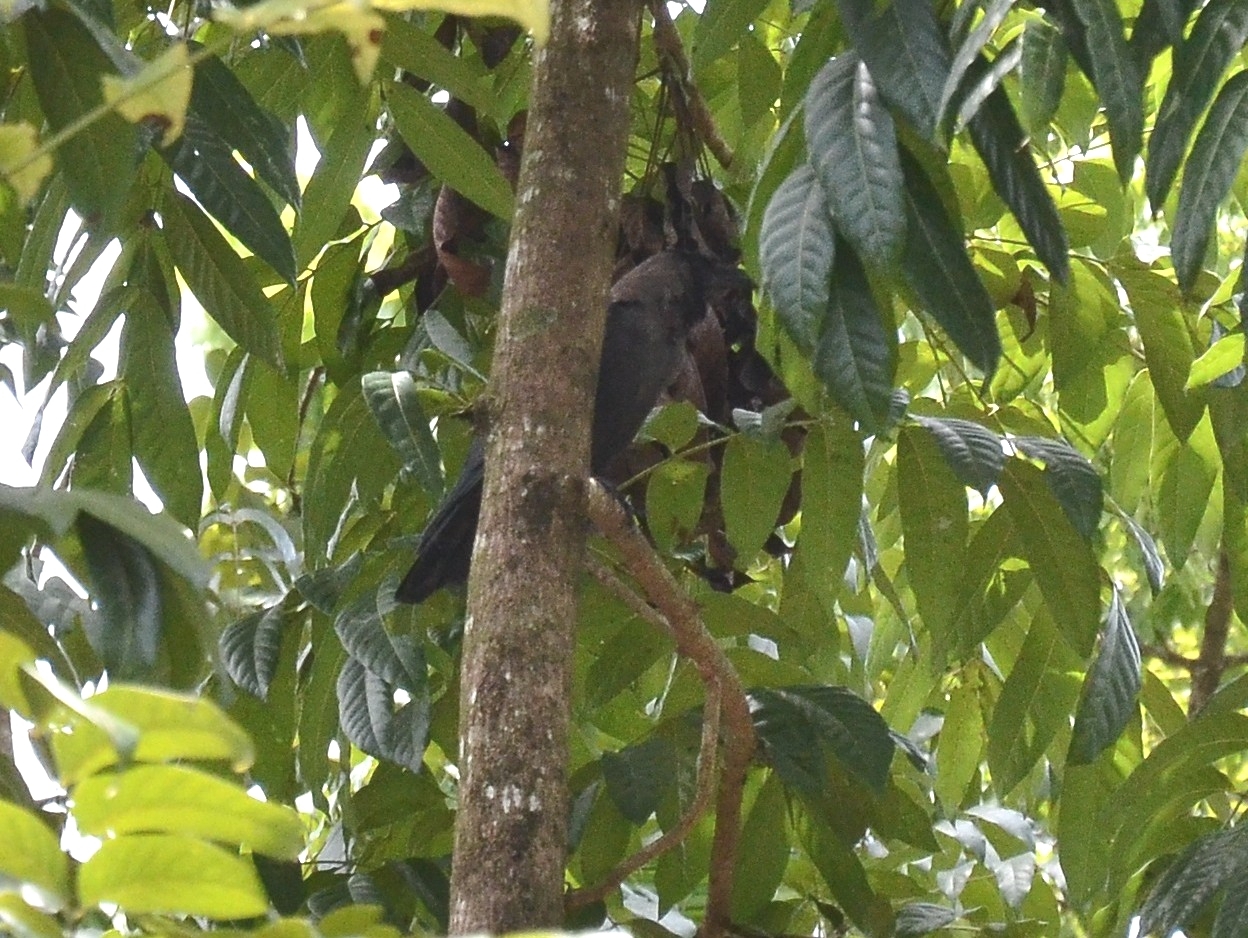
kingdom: Animalia
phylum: Chordata
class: Aves
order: Passeriformes
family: Corvidae
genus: Corvus
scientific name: Corvus splendens
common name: House crow
